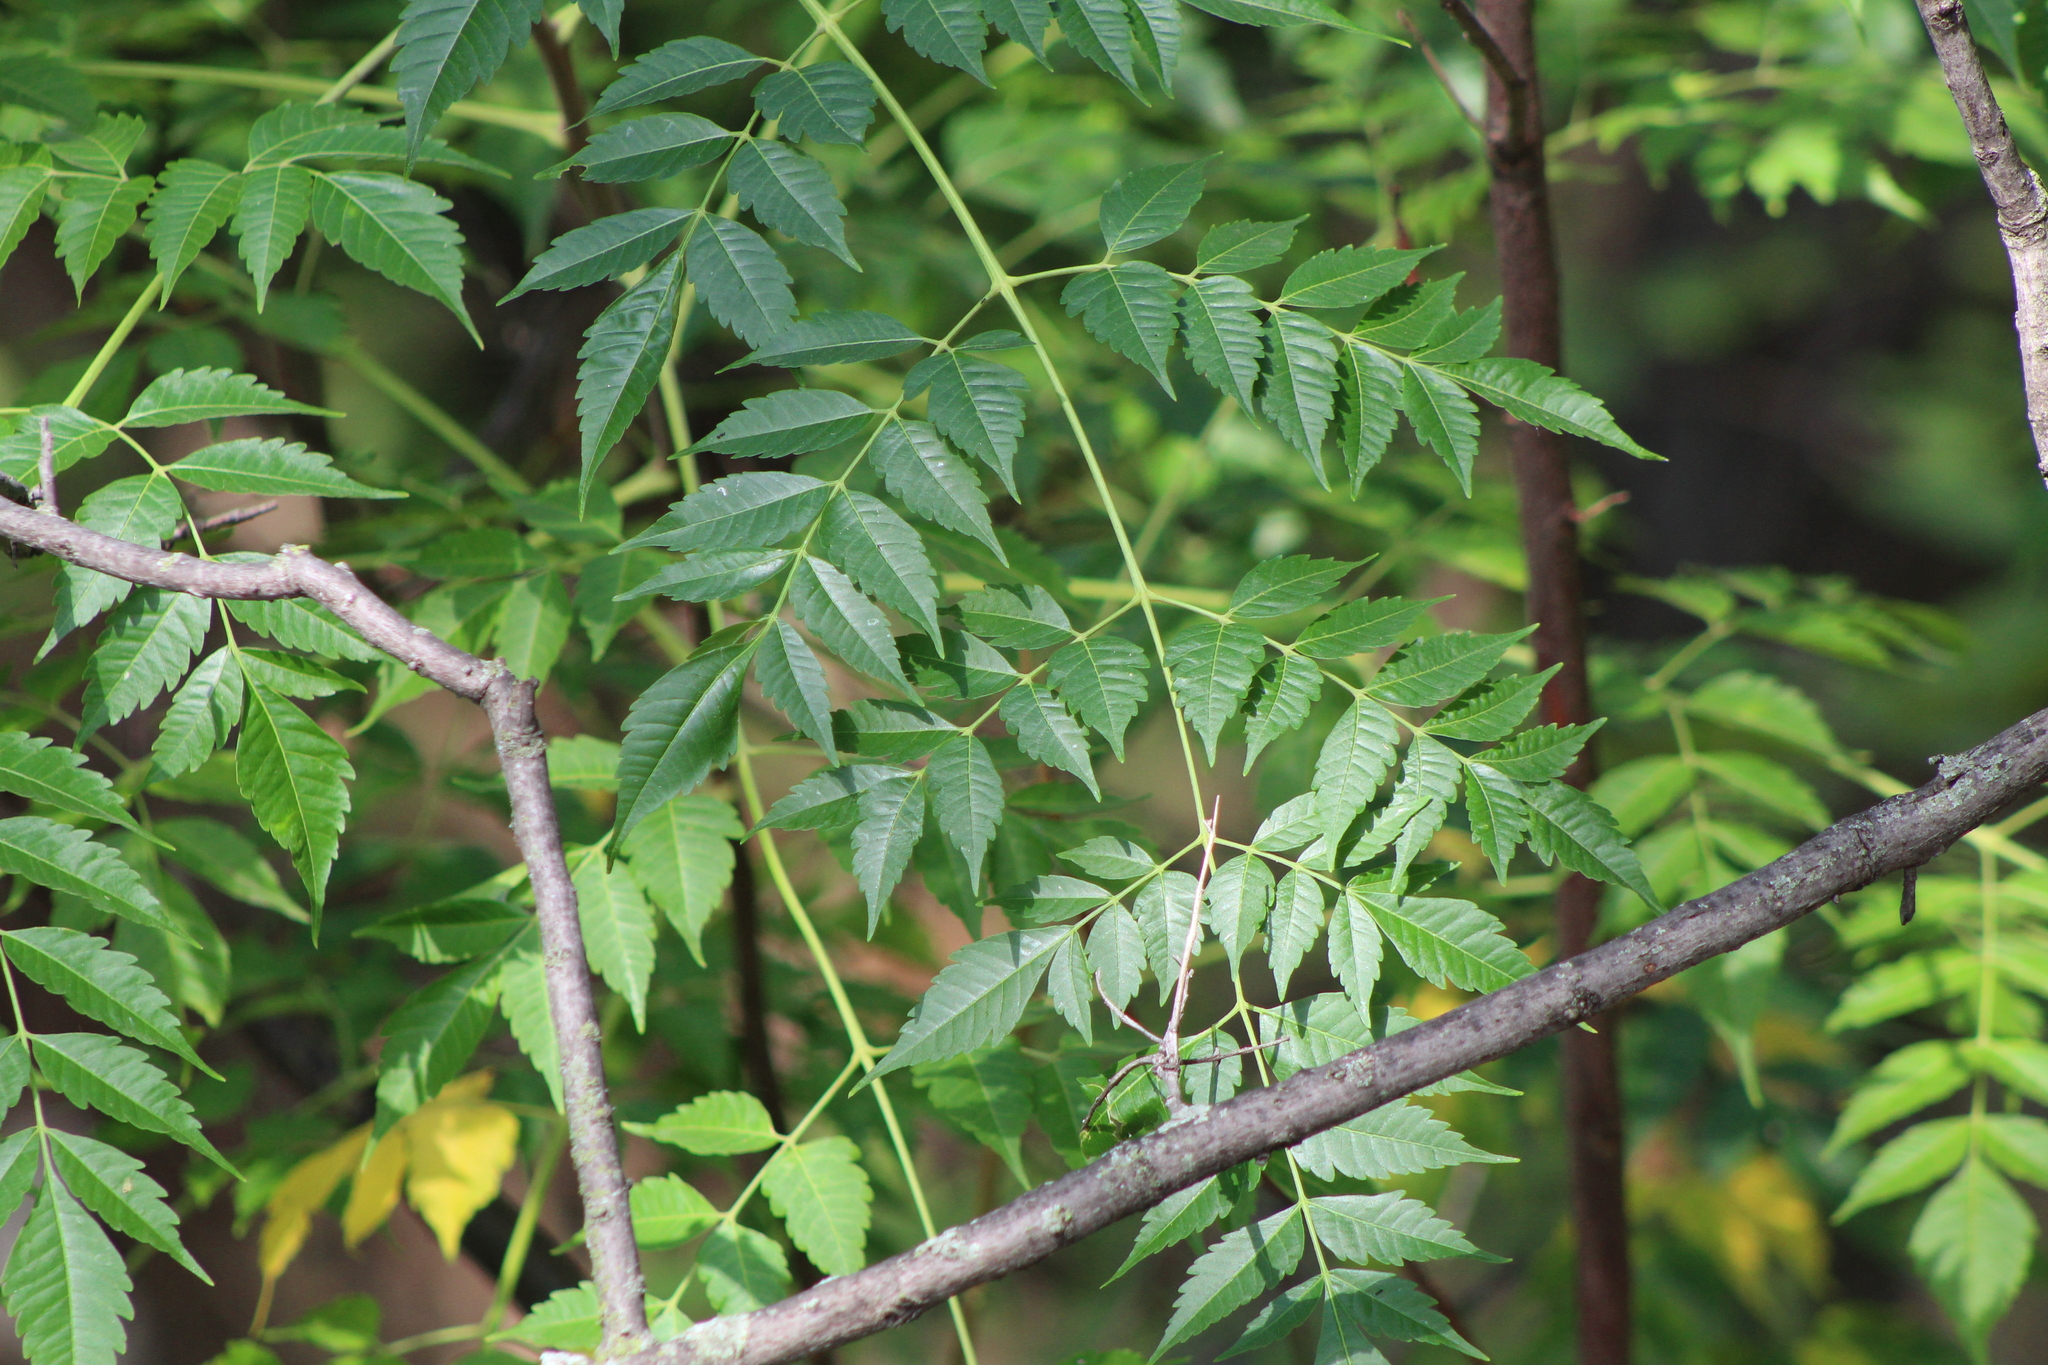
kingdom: Plantae
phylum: Tracheophyta
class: Magnoliopsida
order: Sapindales
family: Meliaceae
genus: Melia
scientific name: Melia azedarach
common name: Chinaberrytree
